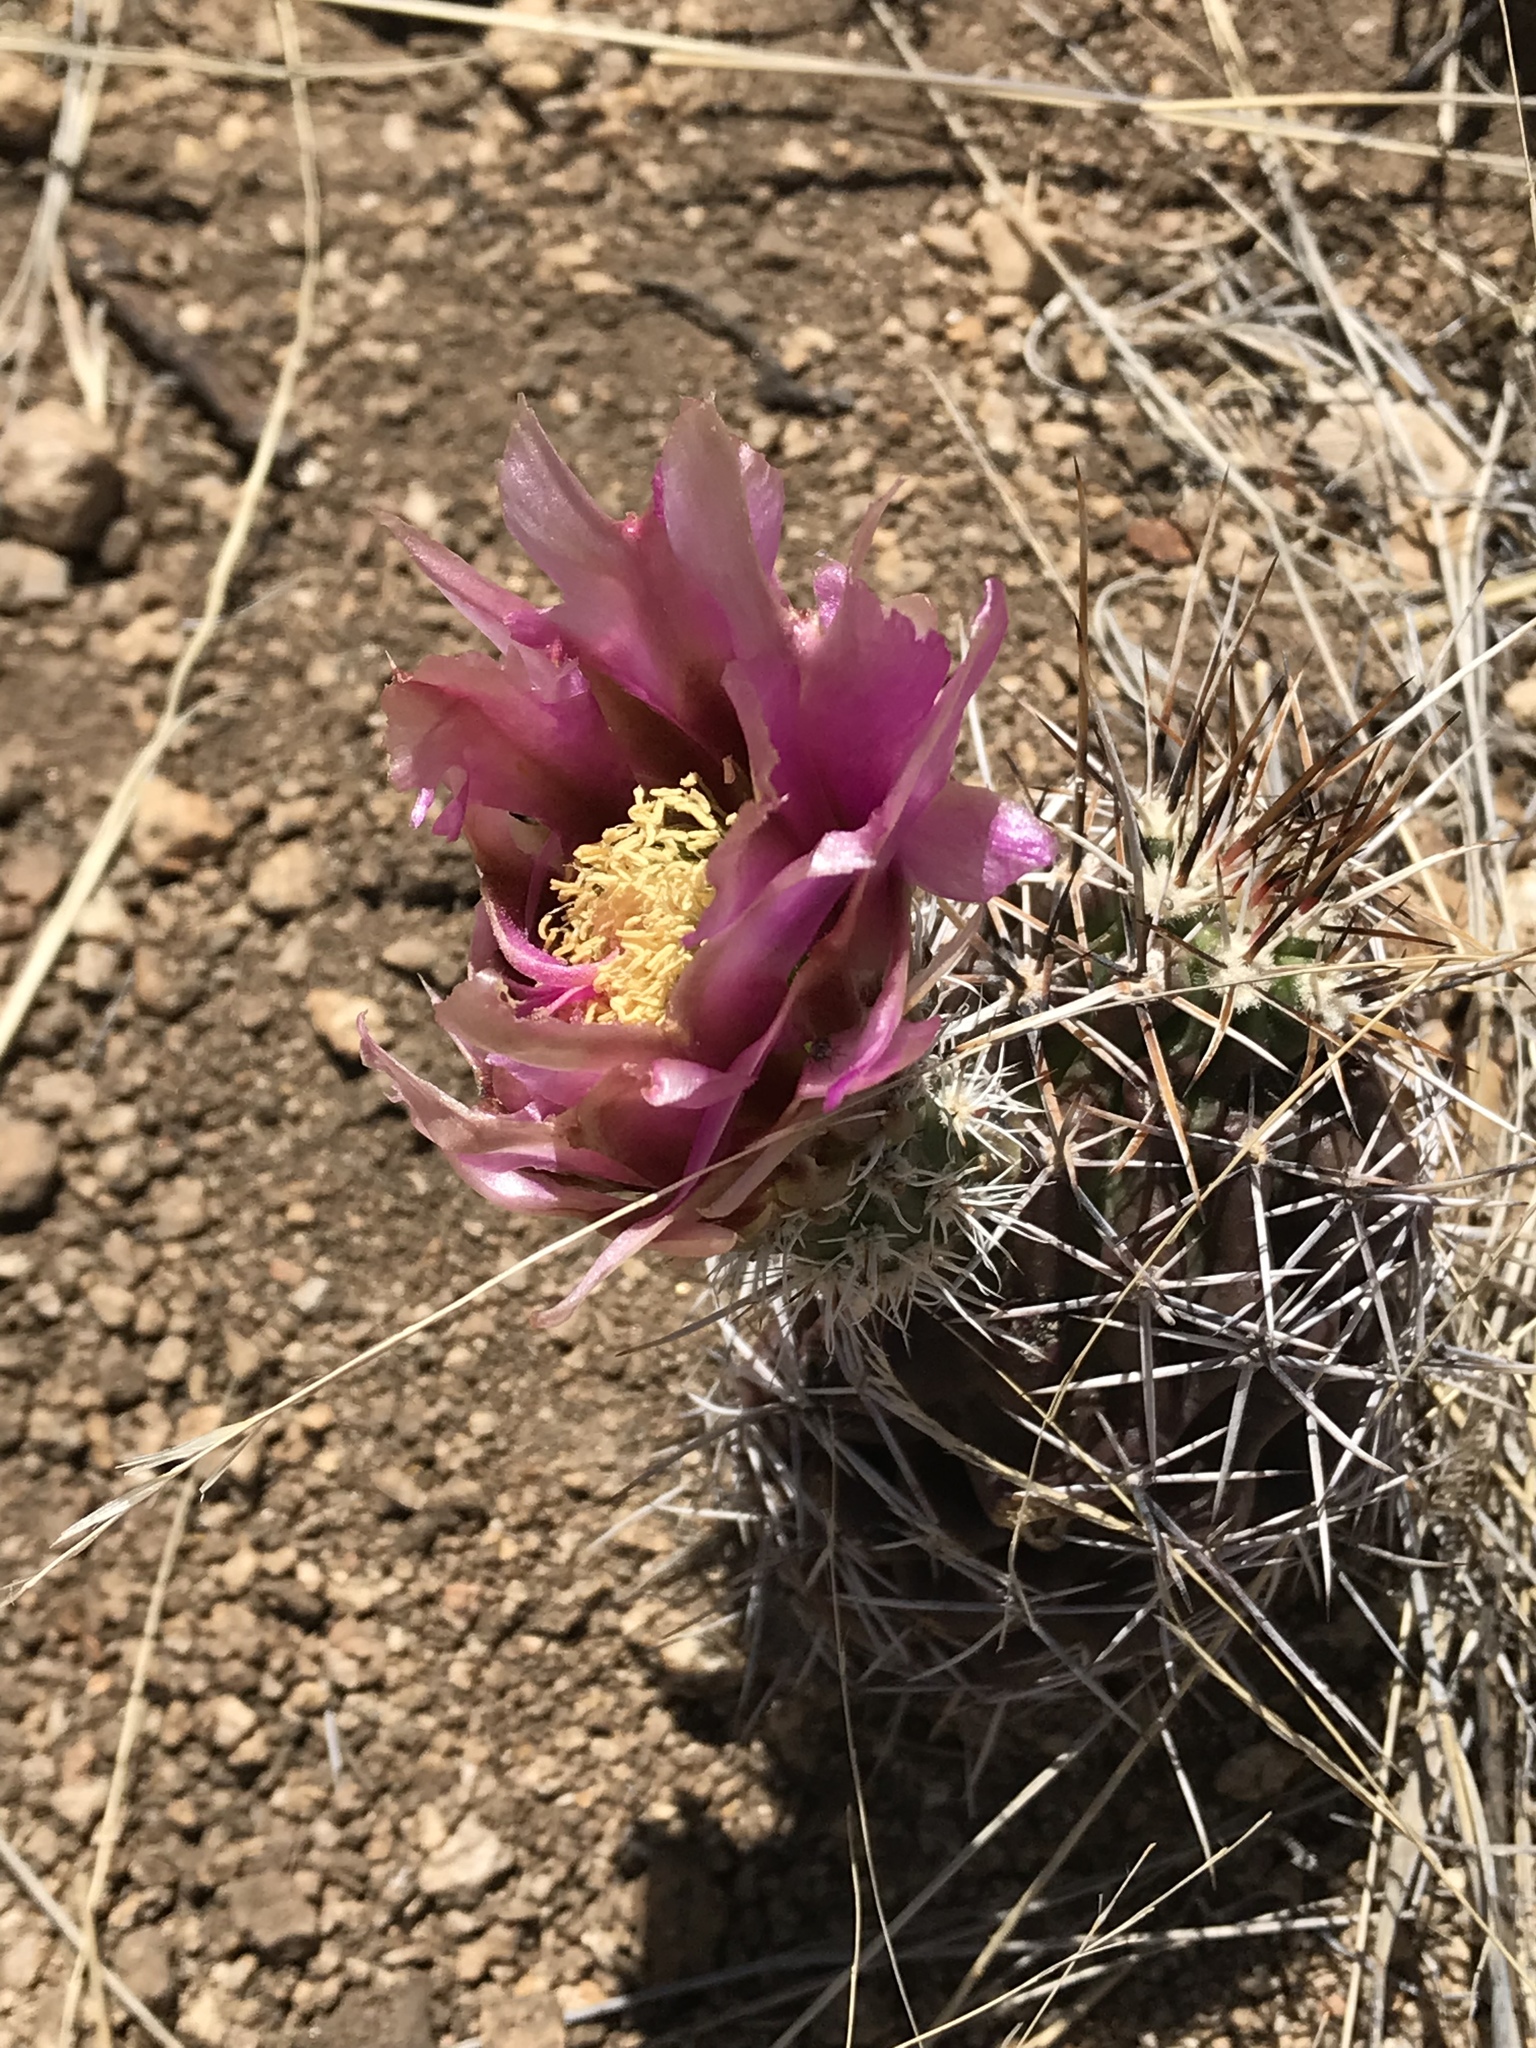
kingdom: Plantae
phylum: Tracheophyta
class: Magnoliopsida
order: Caryophyllales
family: Cactaceae
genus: Echinocereus
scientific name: Echinocereus fendleri
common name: Fendler's hedgehog cactus
